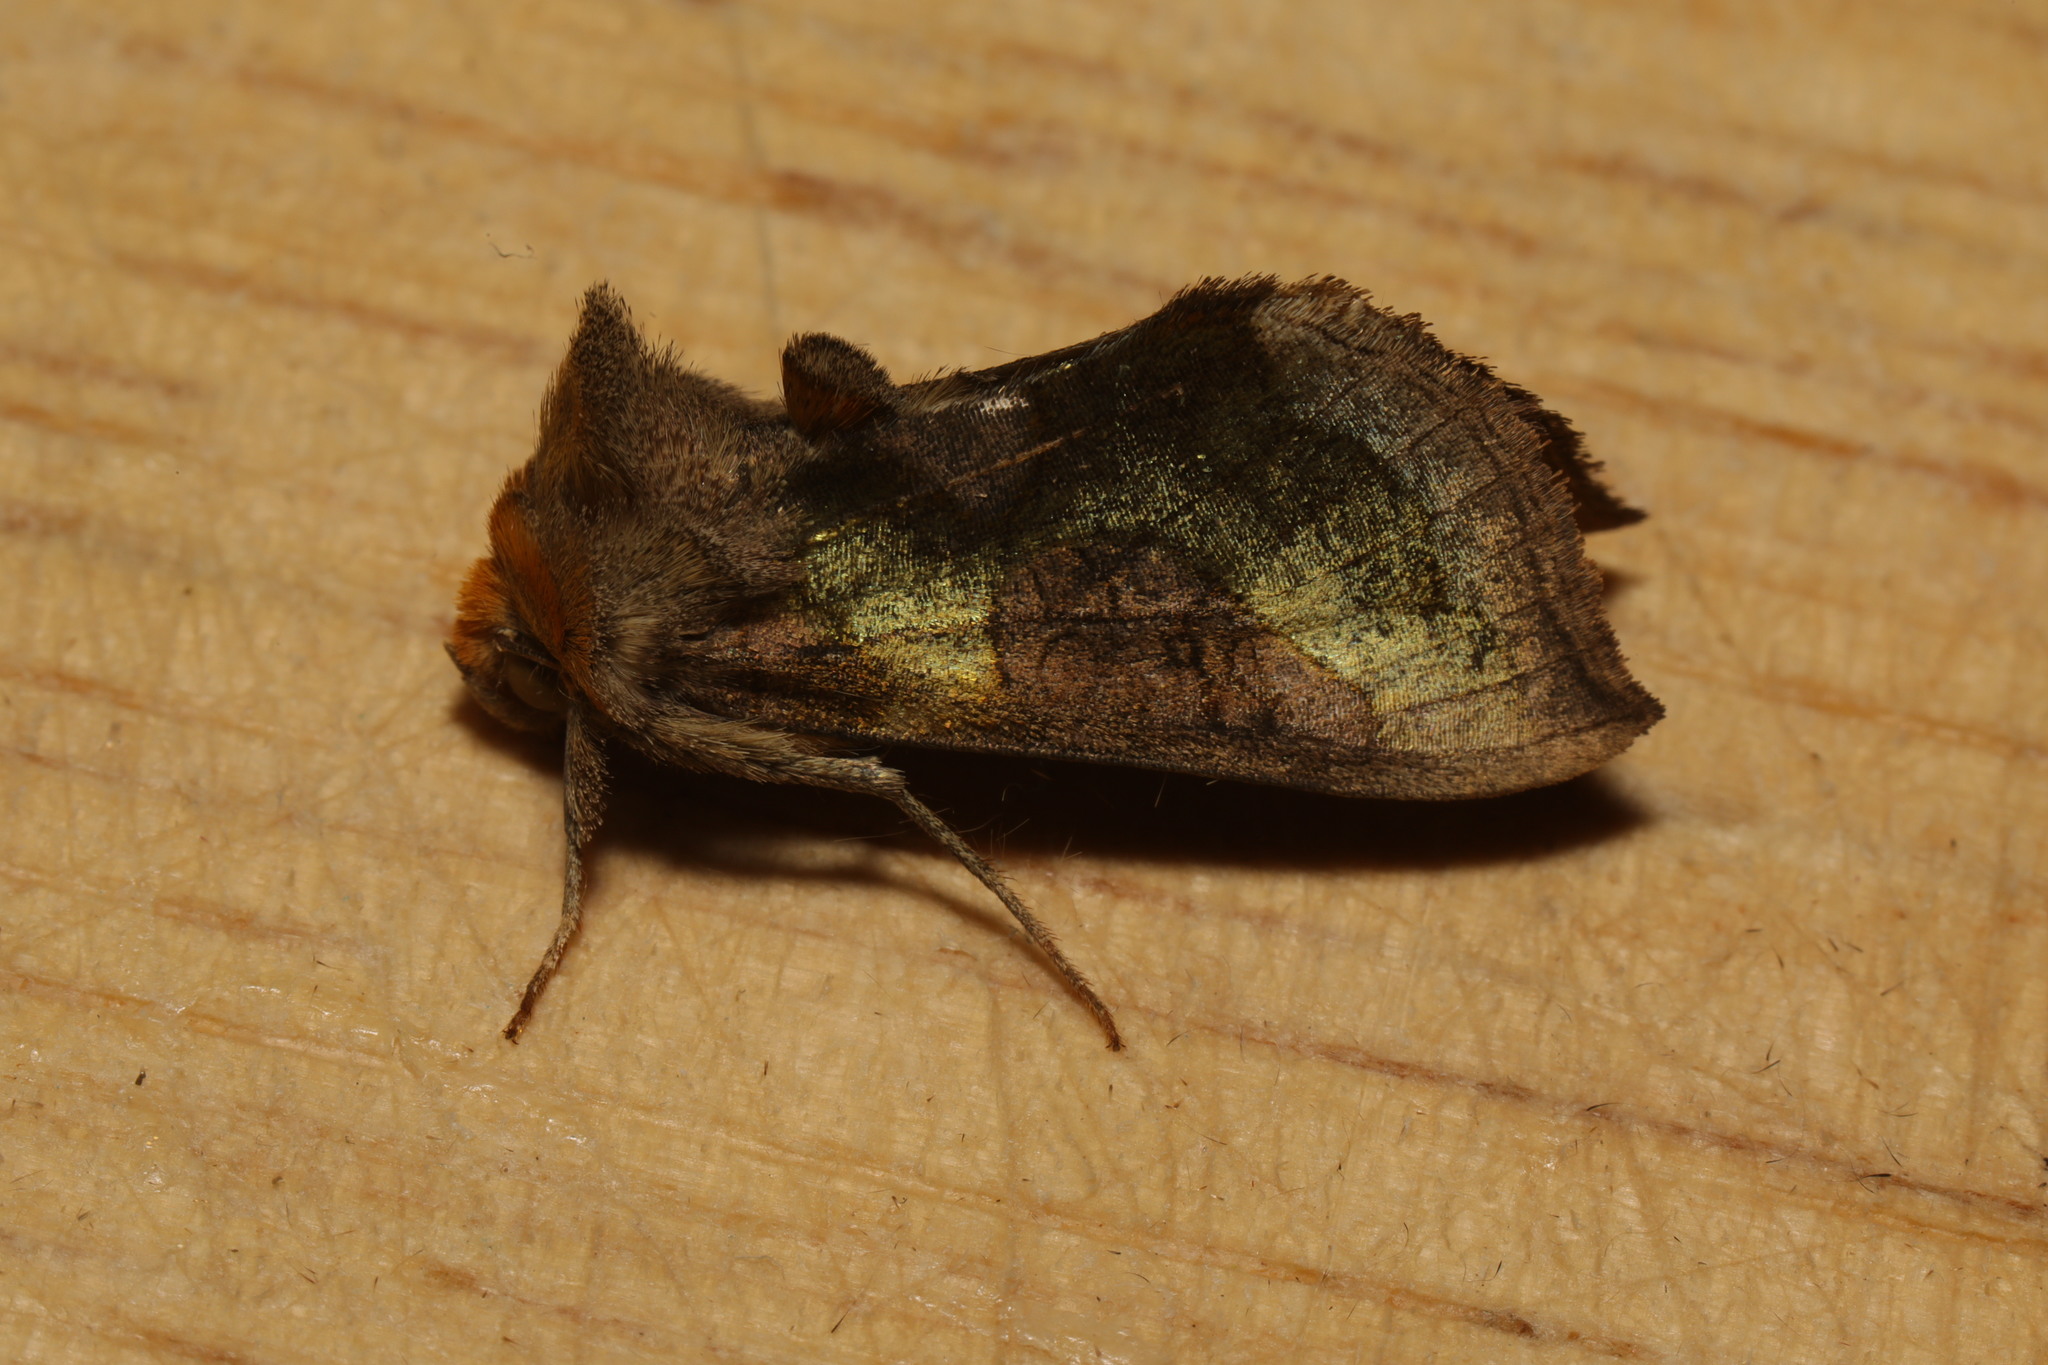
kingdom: Animalia
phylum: Arthropoda
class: Insecta
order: Lepidoptera
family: Noctuidae
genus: Diachrysia
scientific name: Diachrysia chrysitis
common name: Burnished brass
